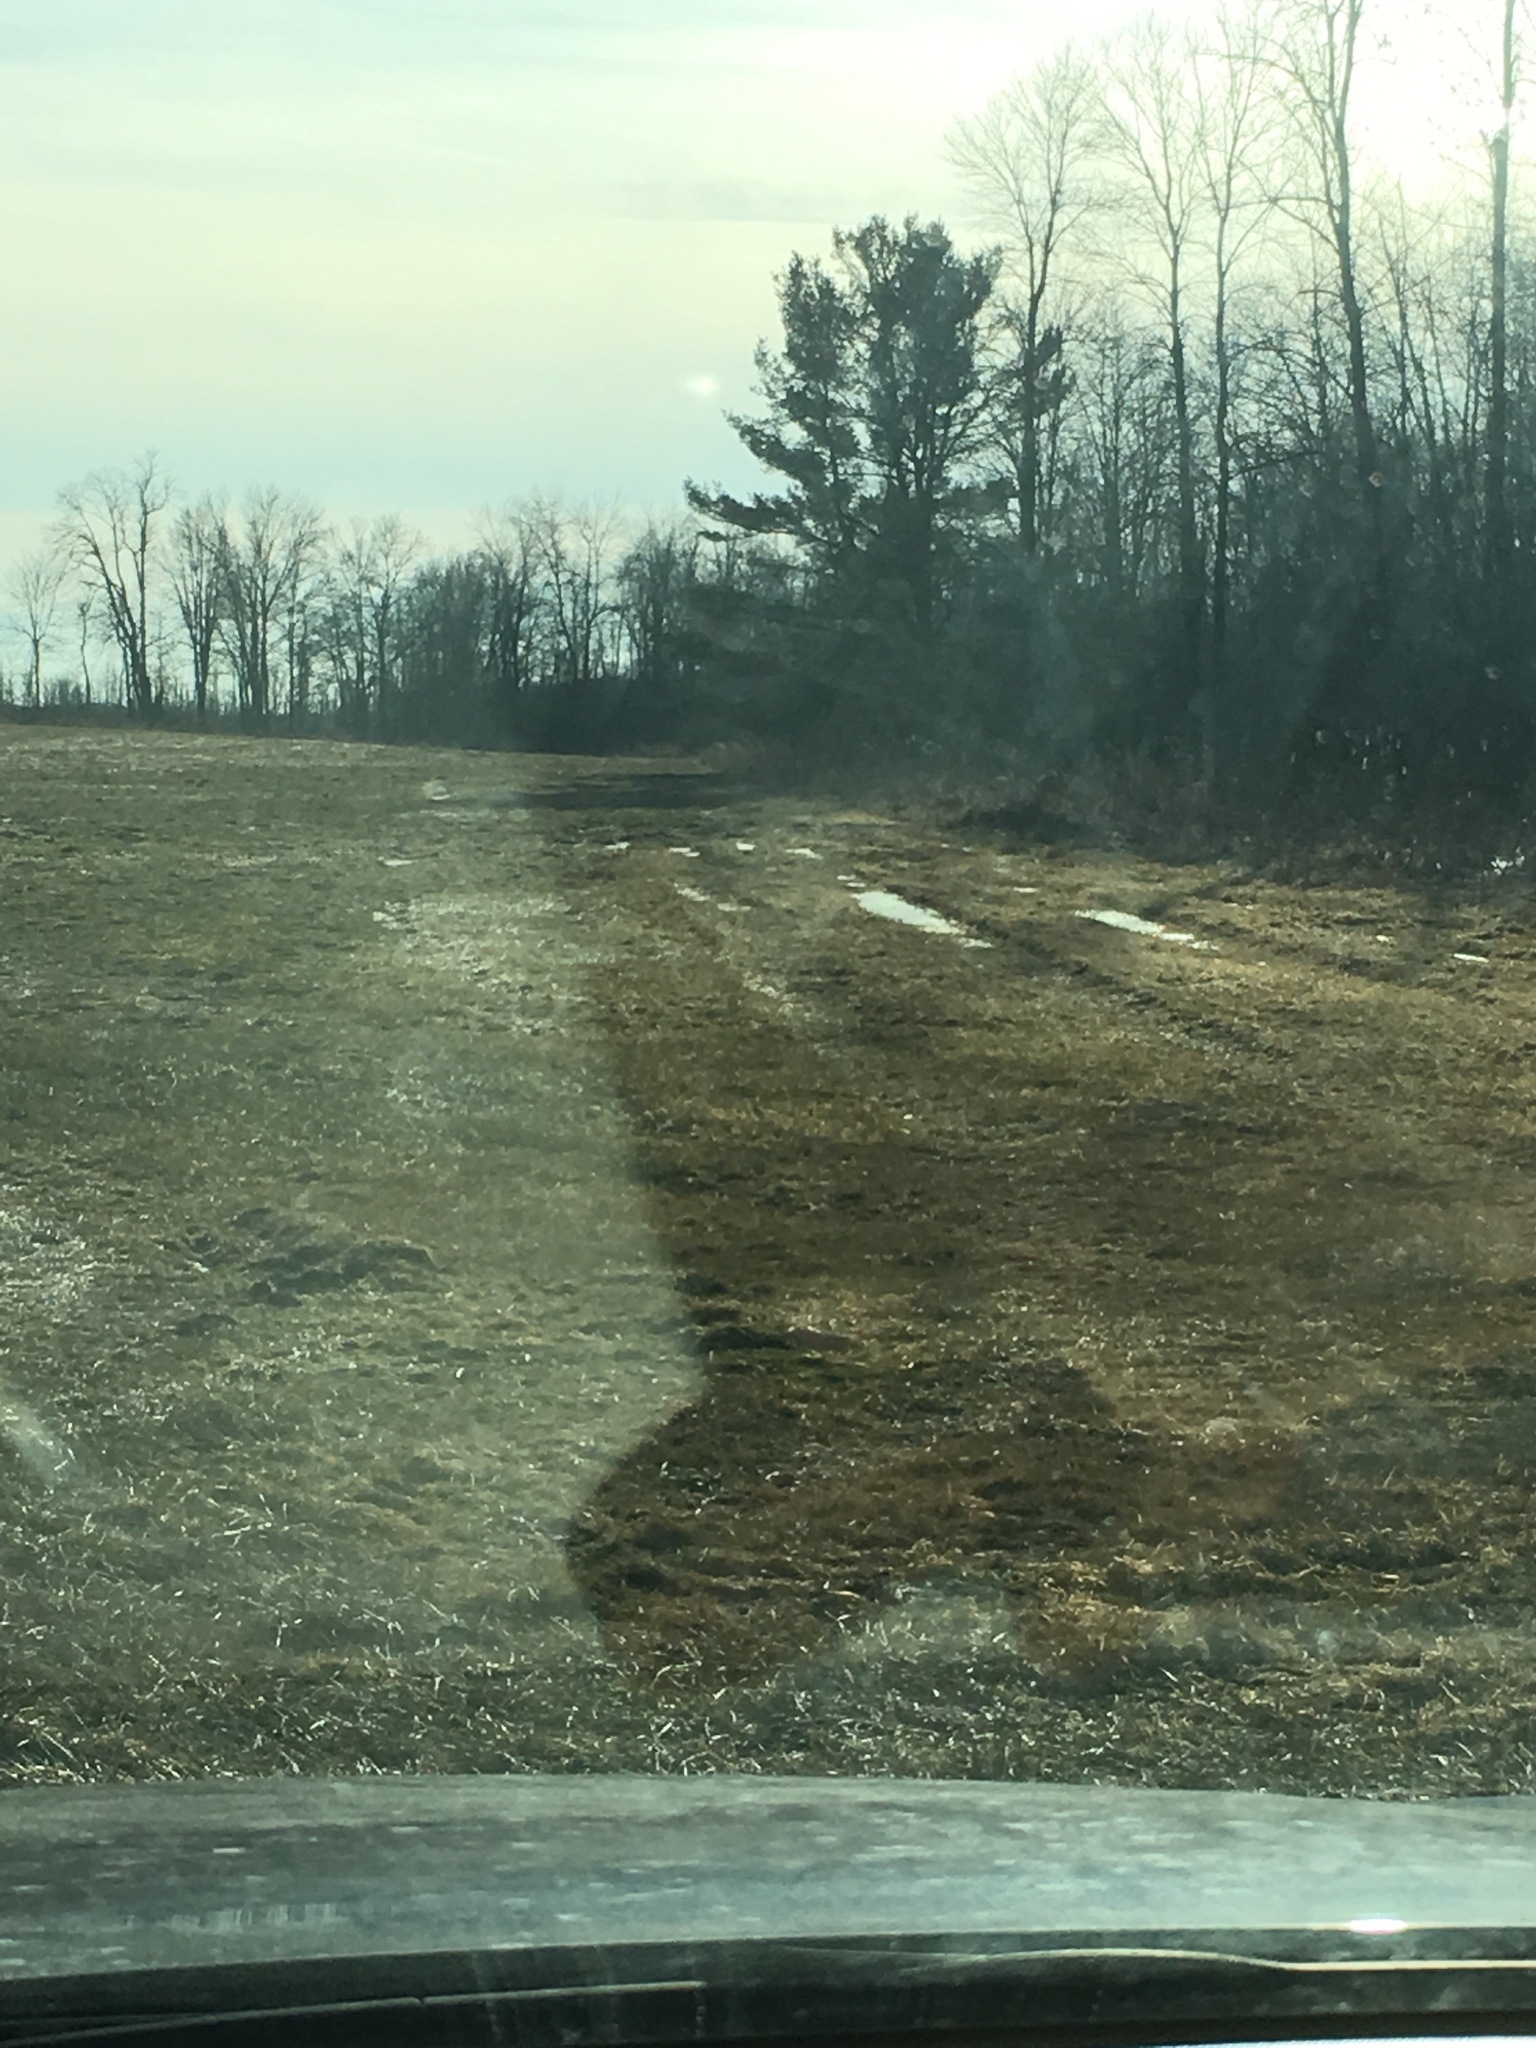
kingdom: Plantae
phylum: Tracheophyta
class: Pinopsida
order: Pinales
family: Pinaceae
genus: Pinus
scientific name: Pinus strobus
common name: Weymouth pine
